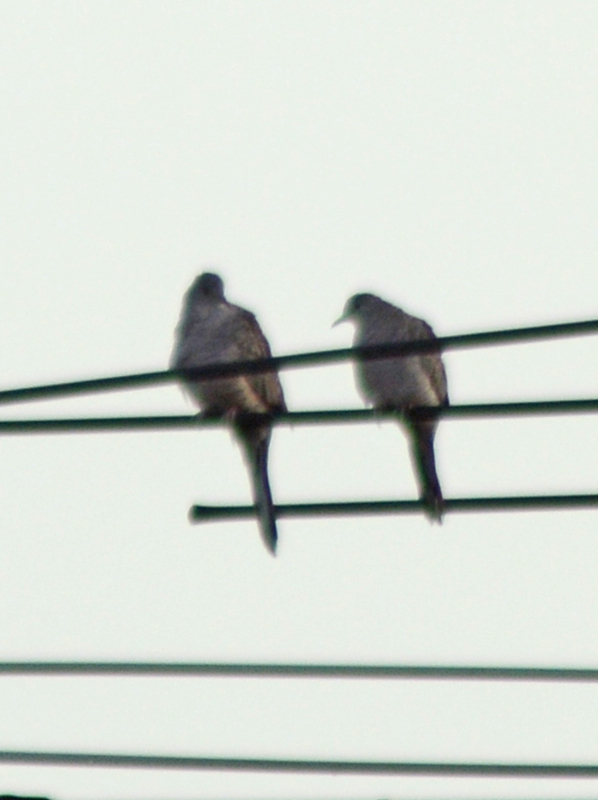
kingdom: Animalia
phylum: Chordata
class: Aves
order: Columbiformes
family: Columbidae
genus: Columbina
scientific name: Columbina inca
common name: Inca dove
